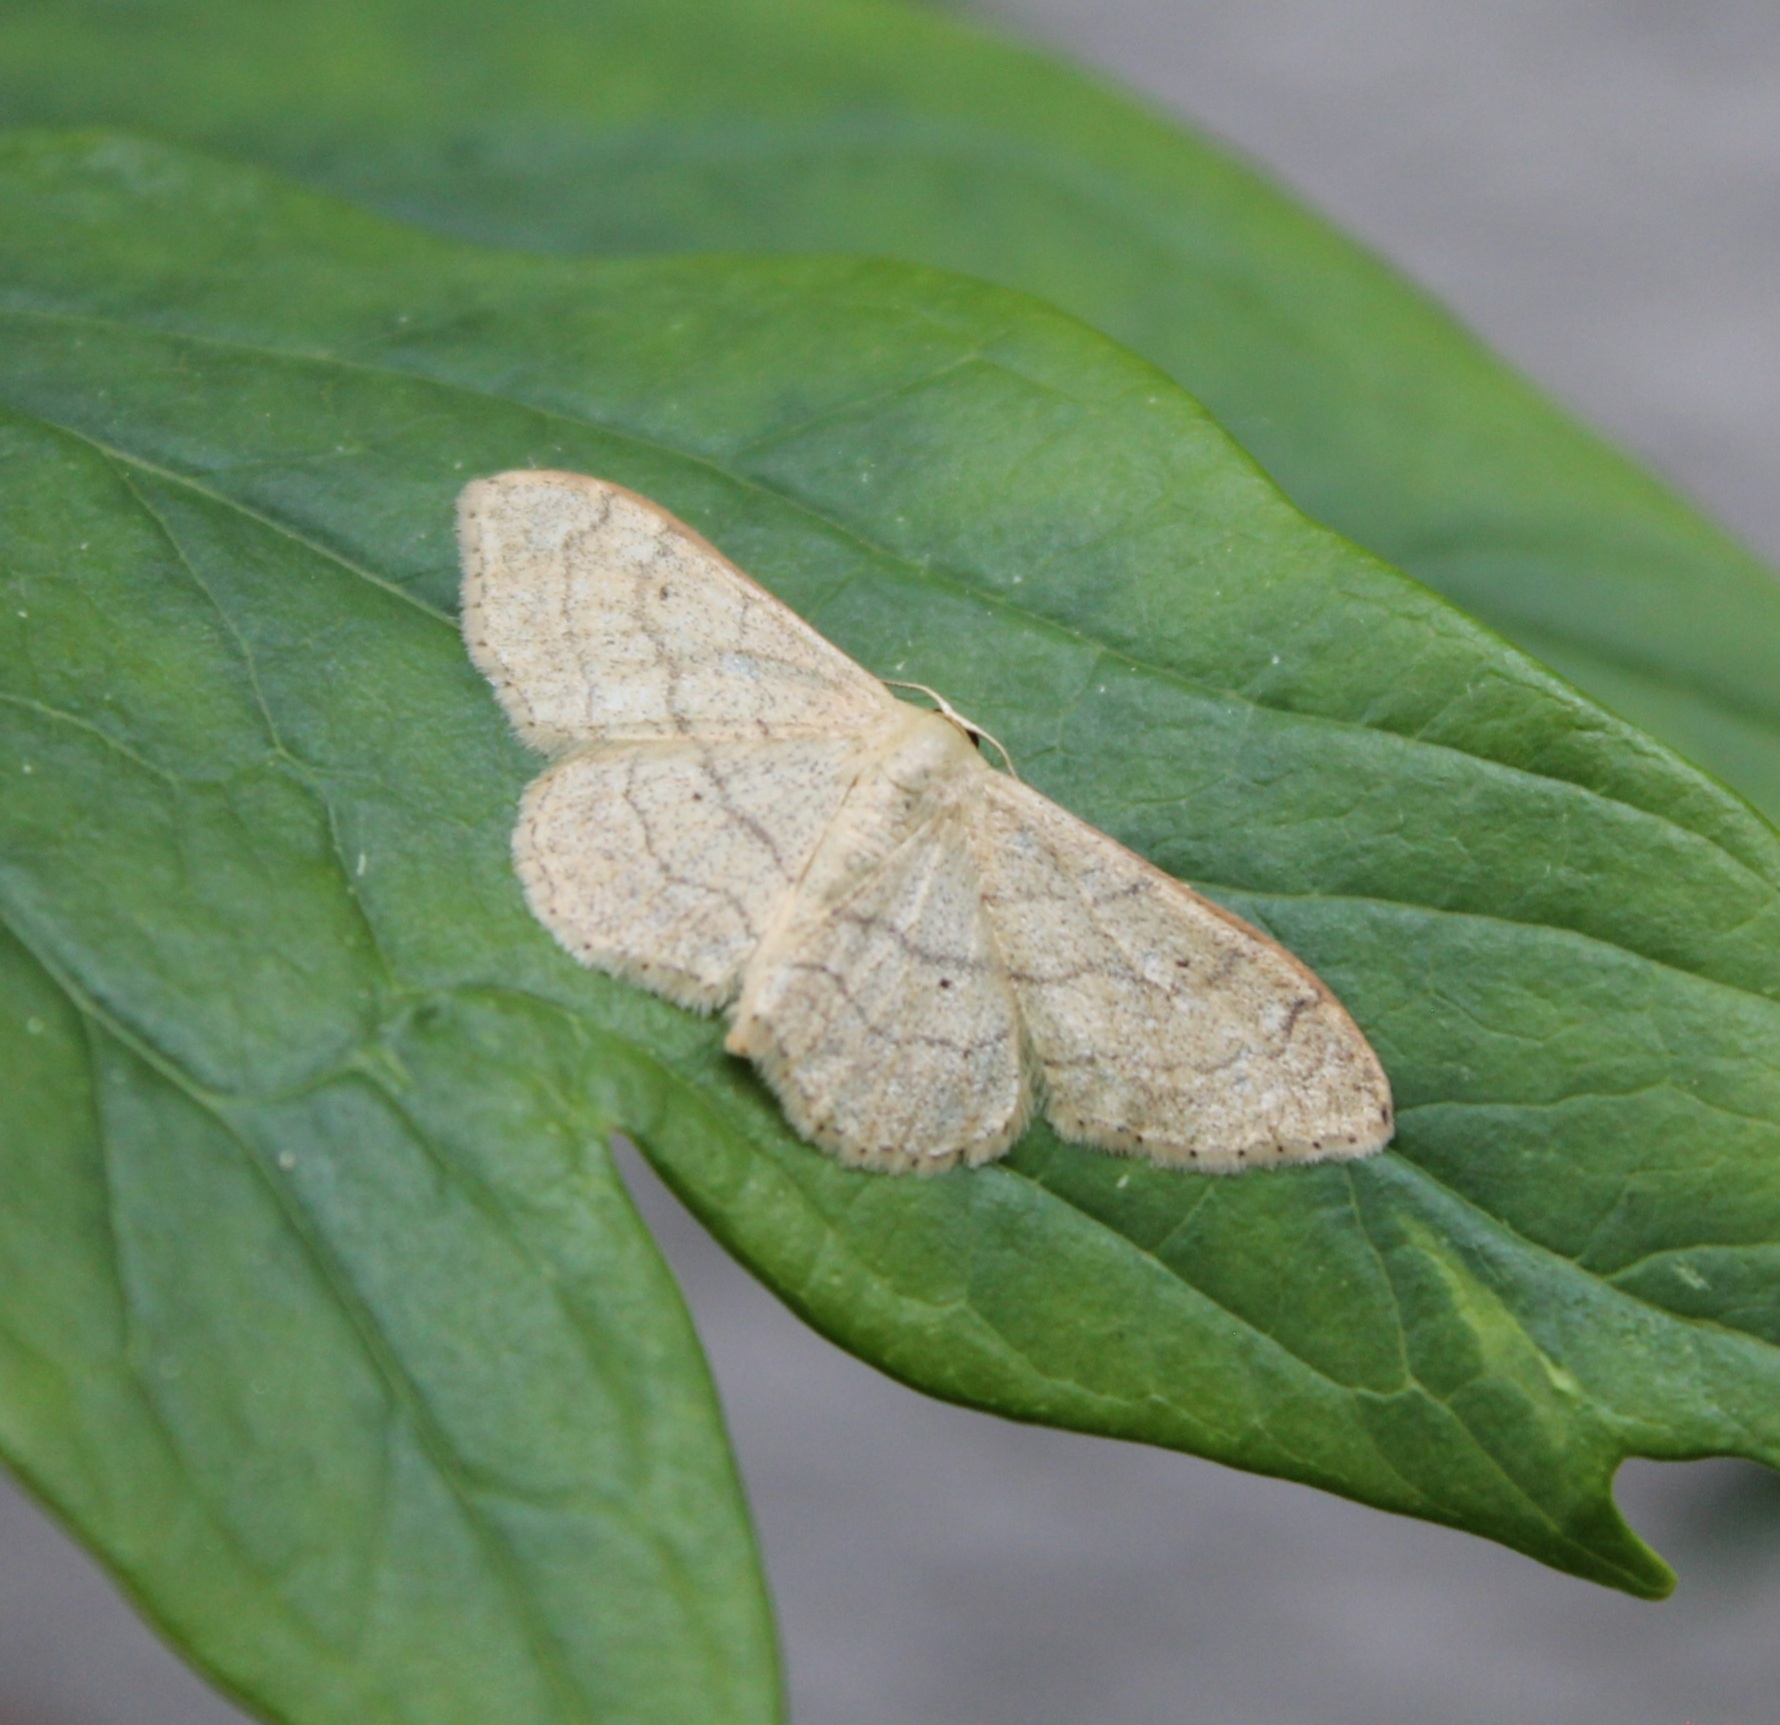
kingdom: Animalia
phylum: Arthropoda
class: Insecta
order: Lepidoptera
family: Geometridae
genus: Idaea
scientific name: Idaea aversata
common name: Riband wave
